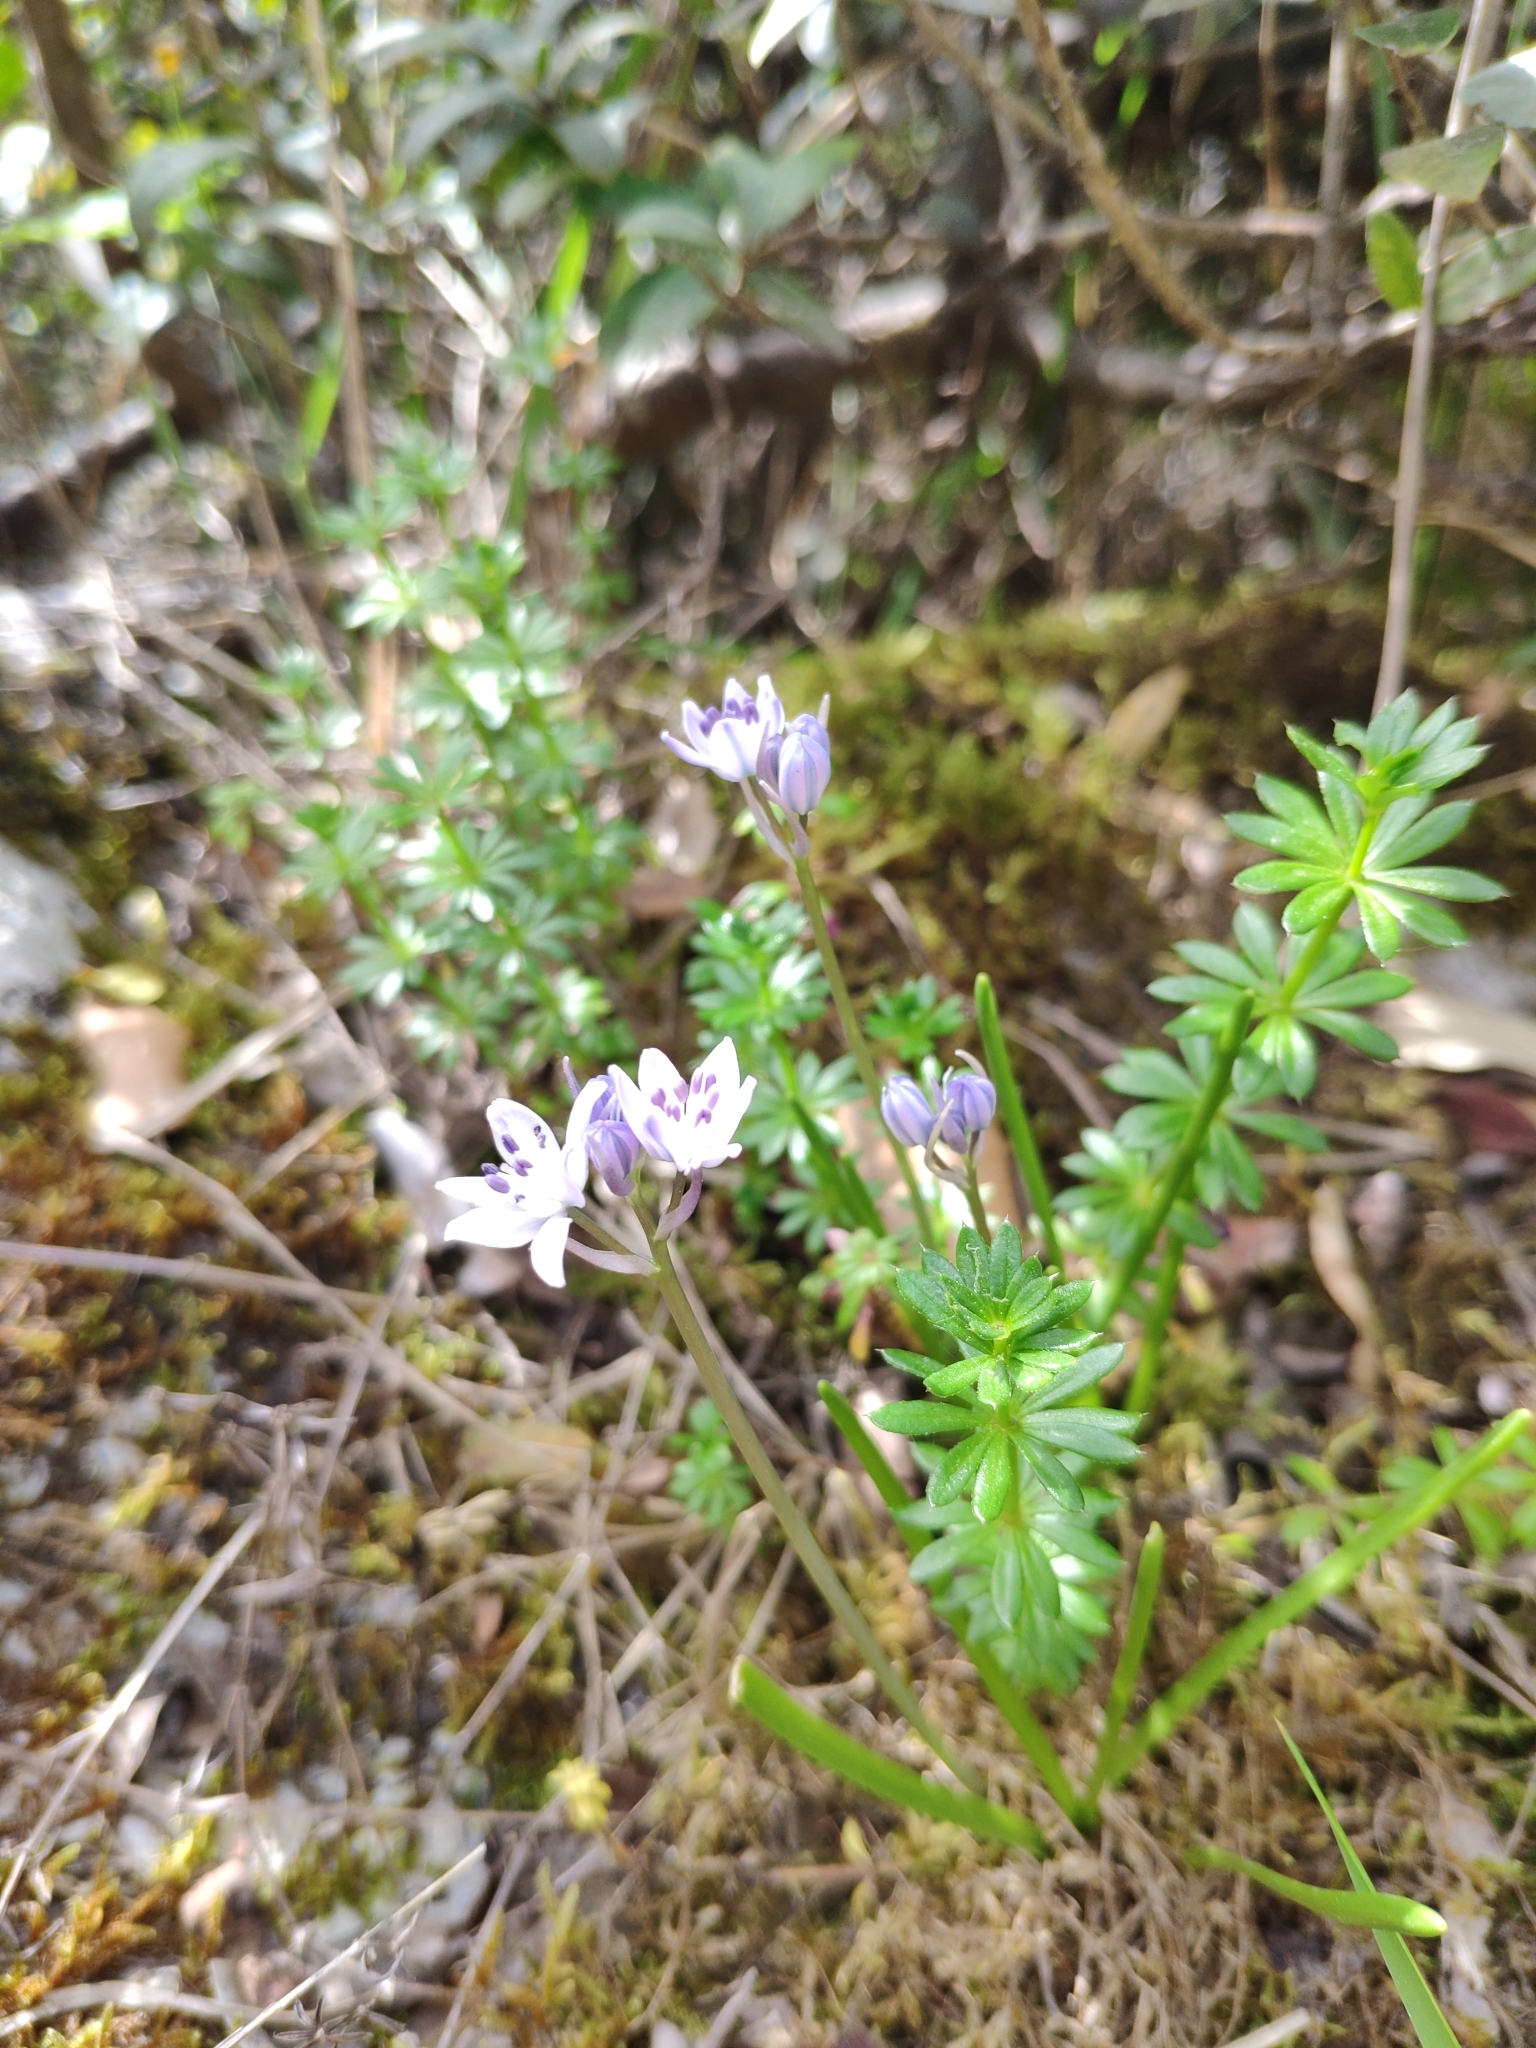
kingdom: Plantae
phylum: Tracheophyta
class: Liliopsida
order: Asparagales
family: Asparagaceae
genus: Scilla
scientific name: Scilla verna
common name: Spring squill
